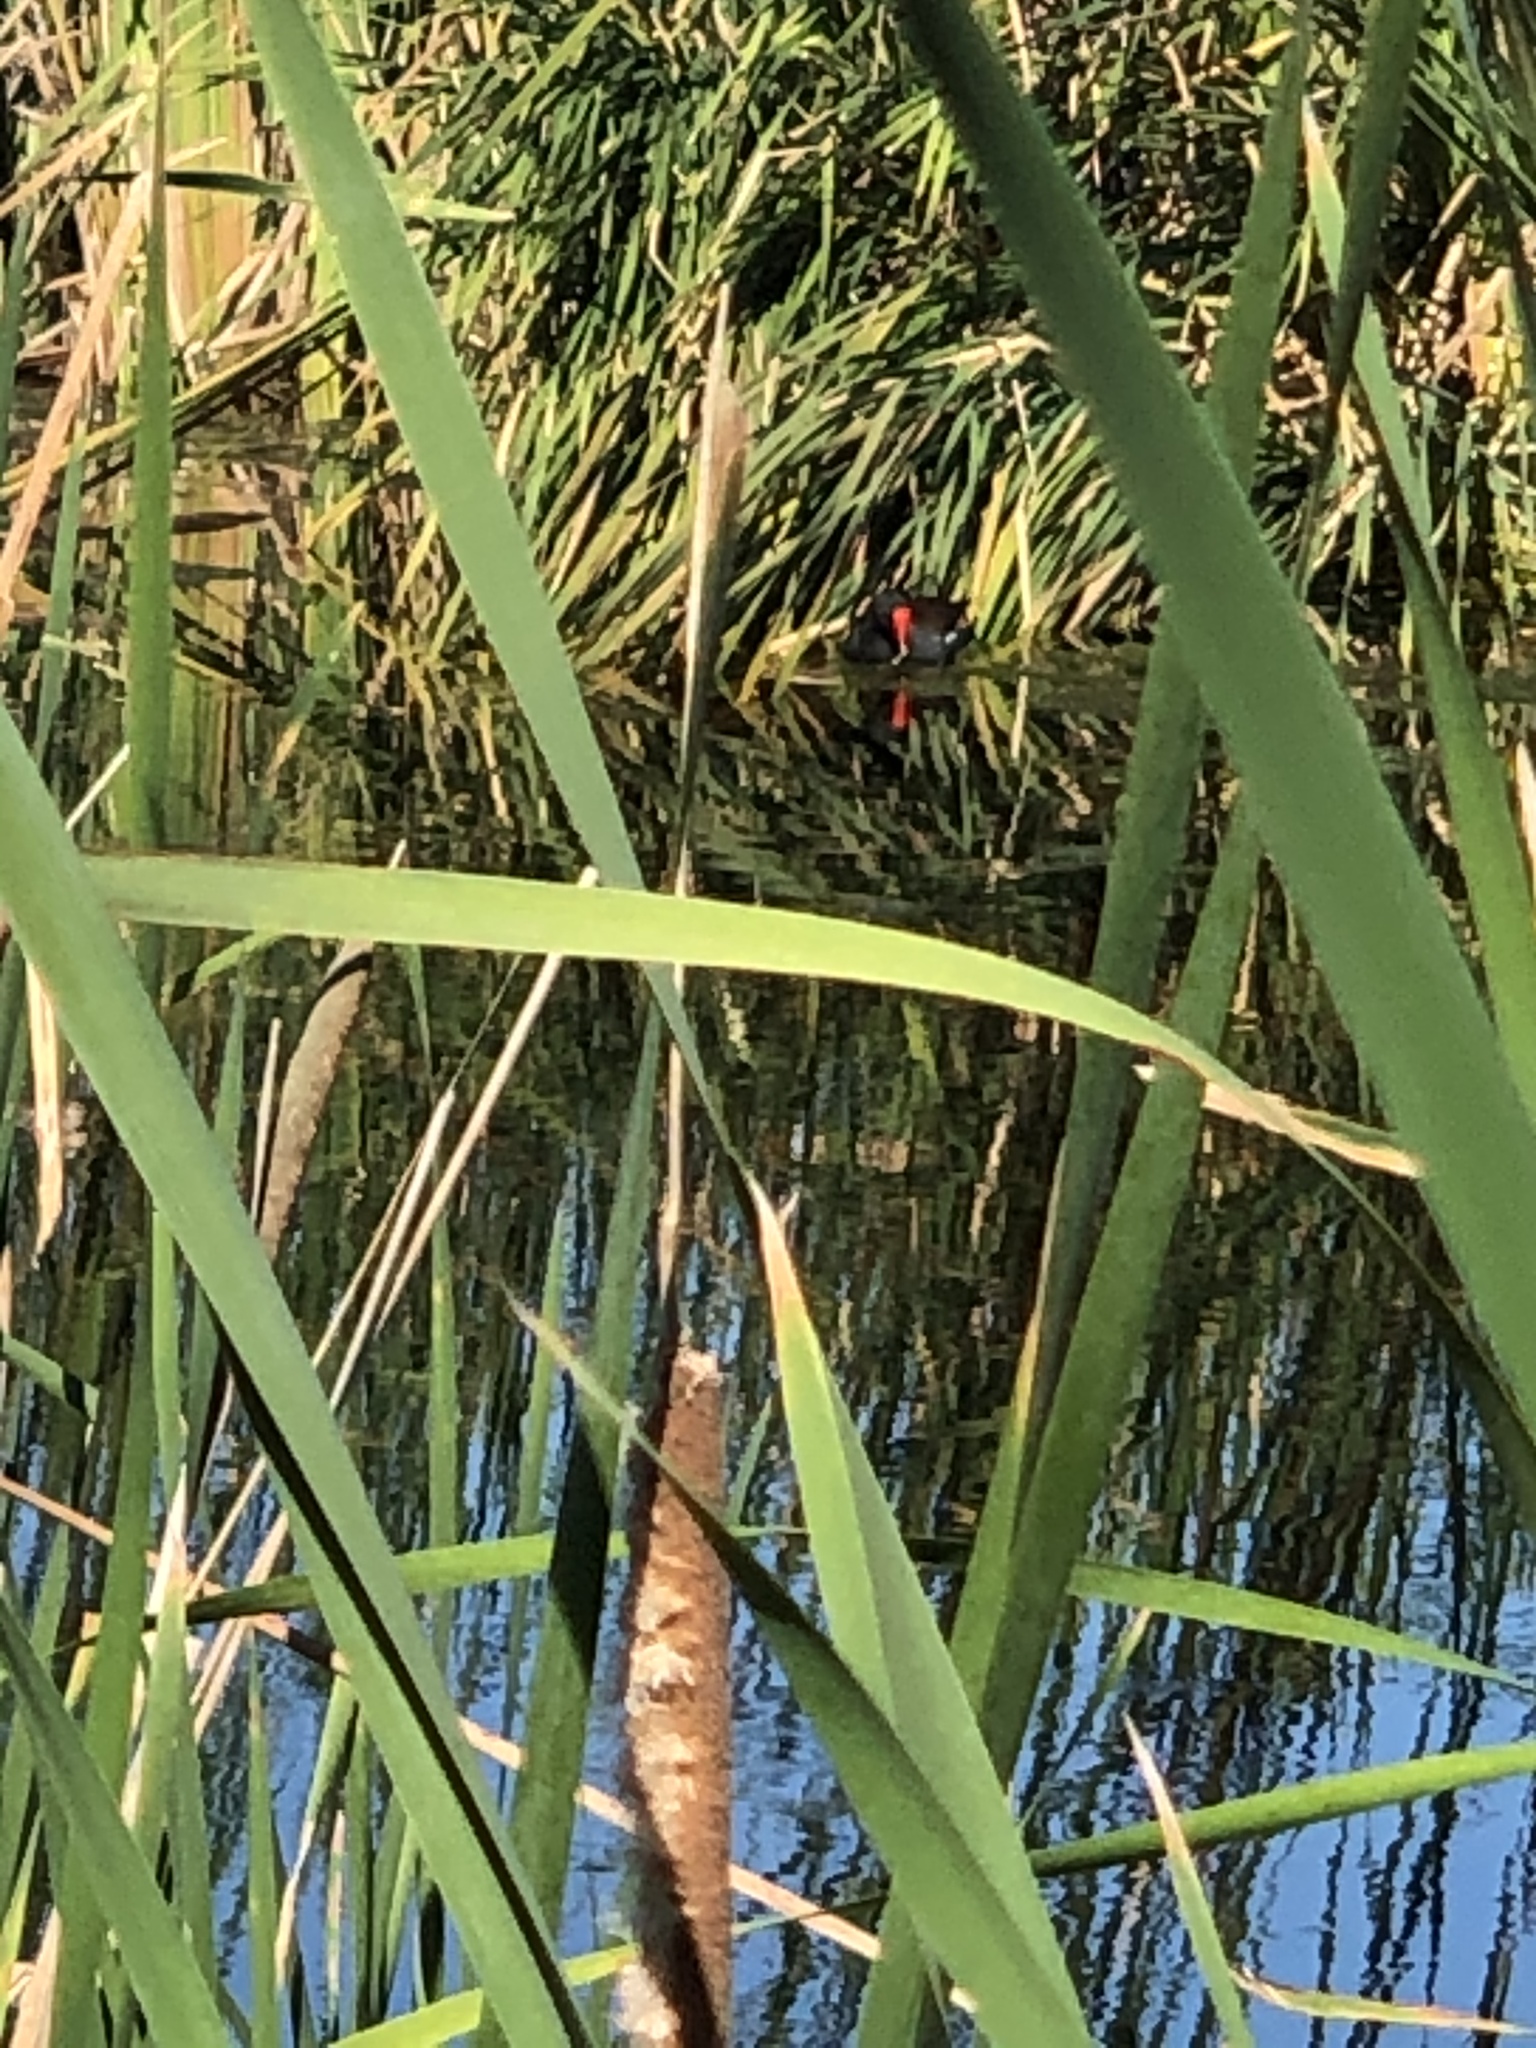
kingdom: Animalia
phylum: Chordata
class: Aves
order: Gruiformes
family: Rallidae
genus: Gallinula
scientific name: Gallinula chloropus
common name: Common moorhen
